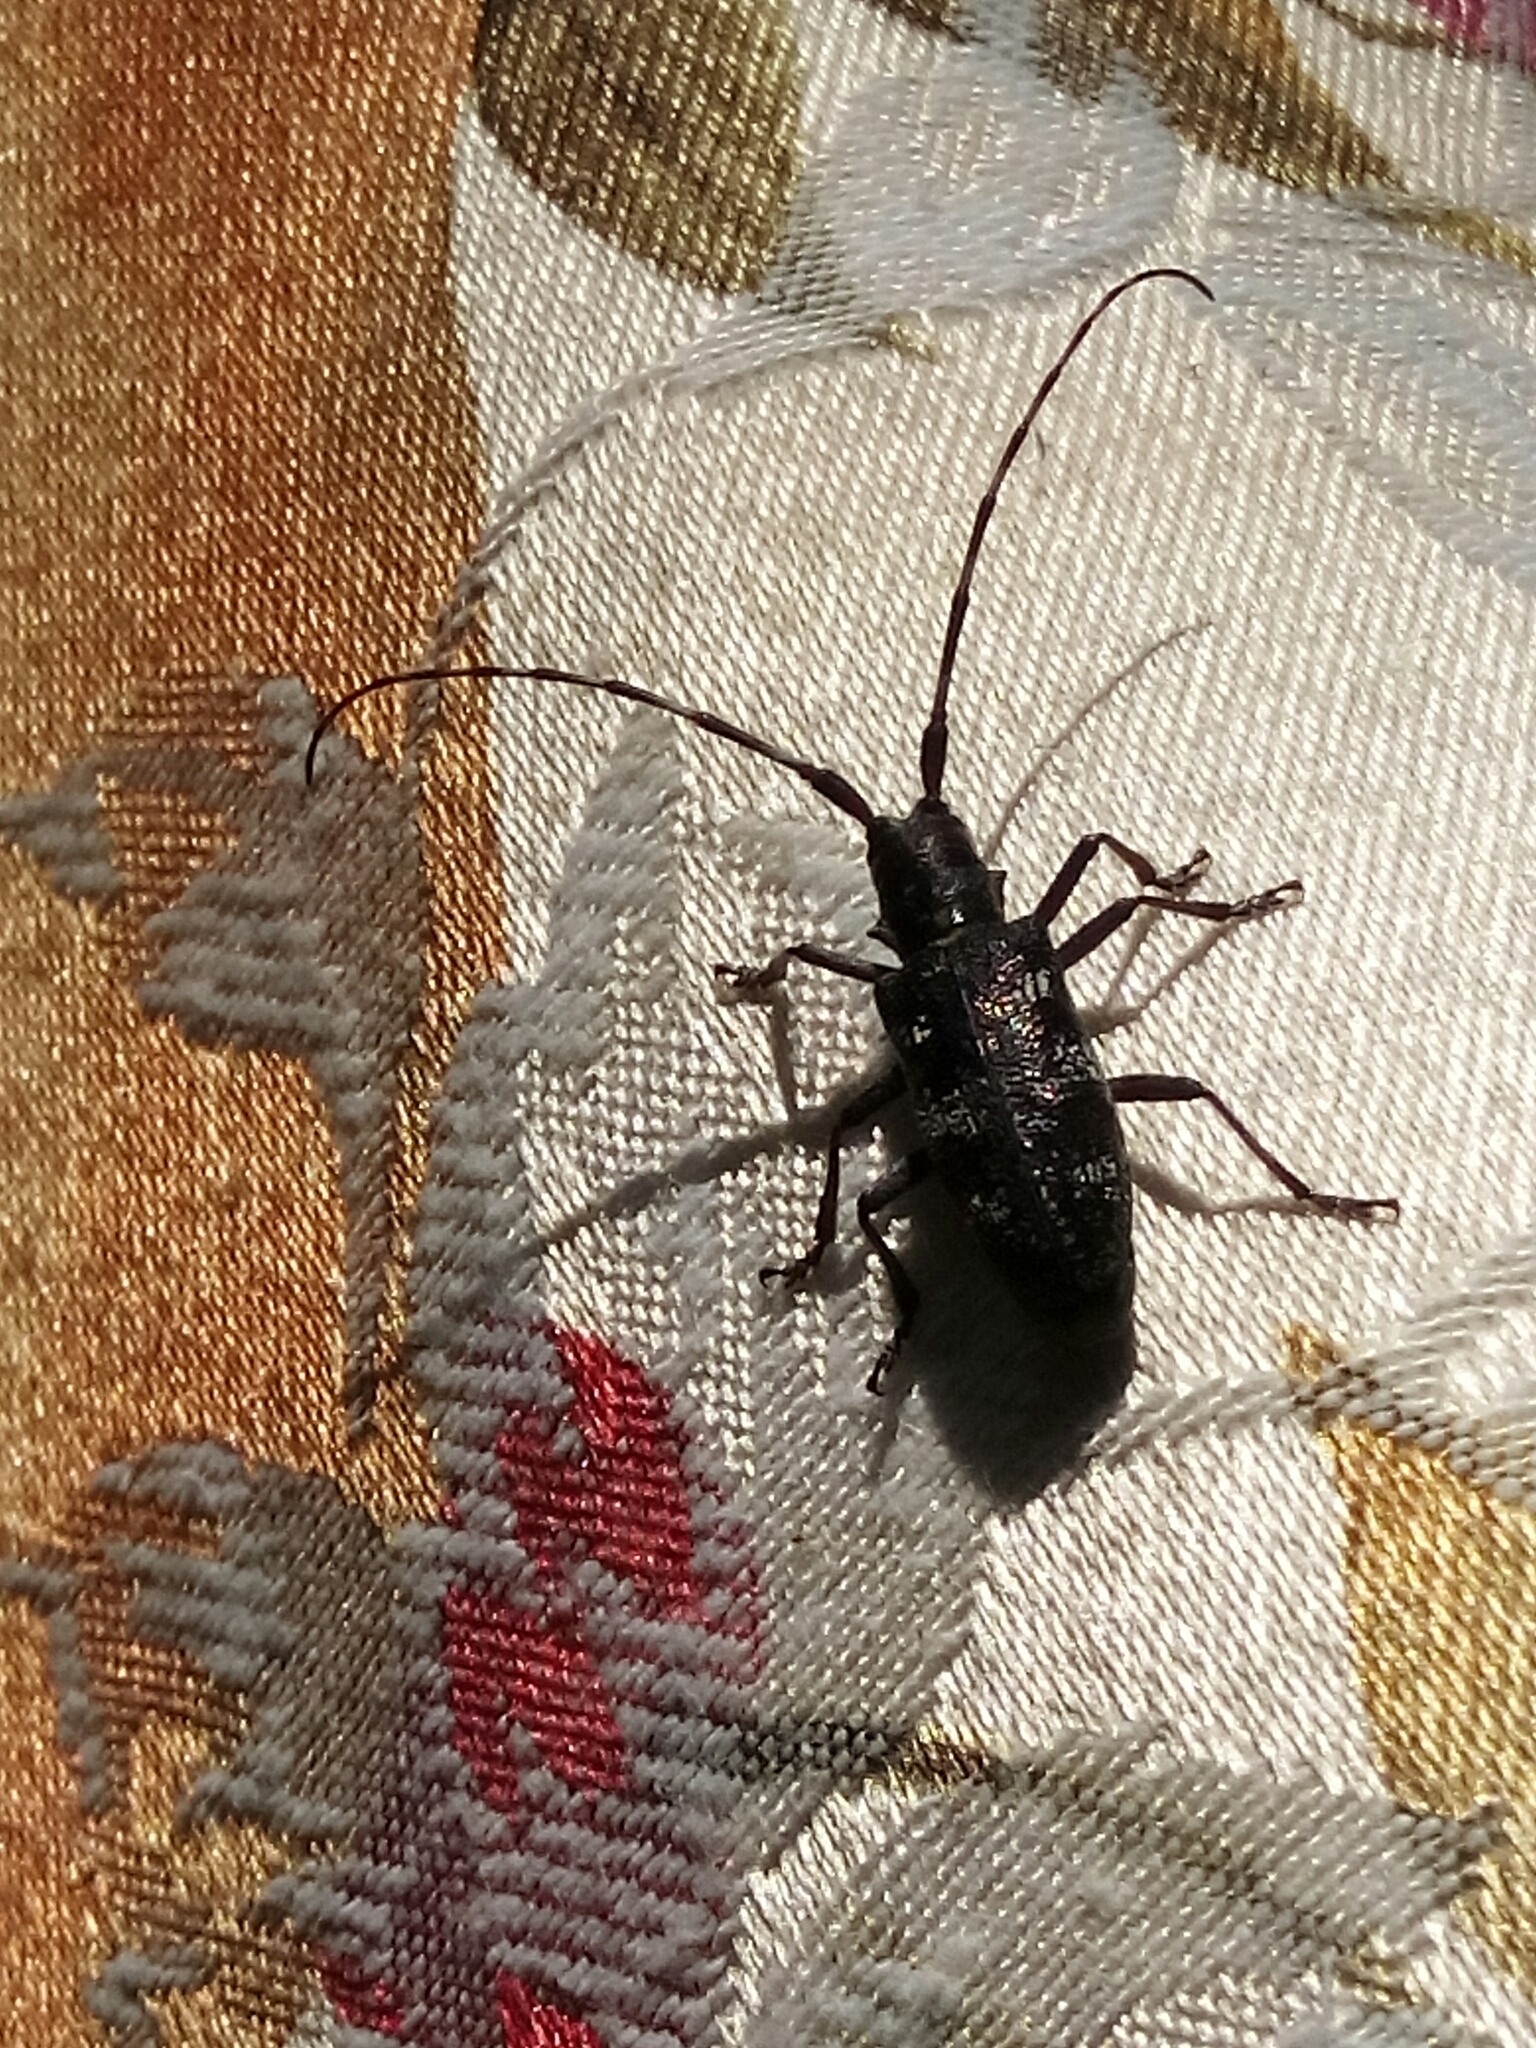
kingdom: Animalia
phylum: Arthropoda
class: Insecta
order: Coleoptera
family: Cerambycidae
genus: Monochamus
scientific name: Monochamus galloprovincialis
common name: Pine sawyer
